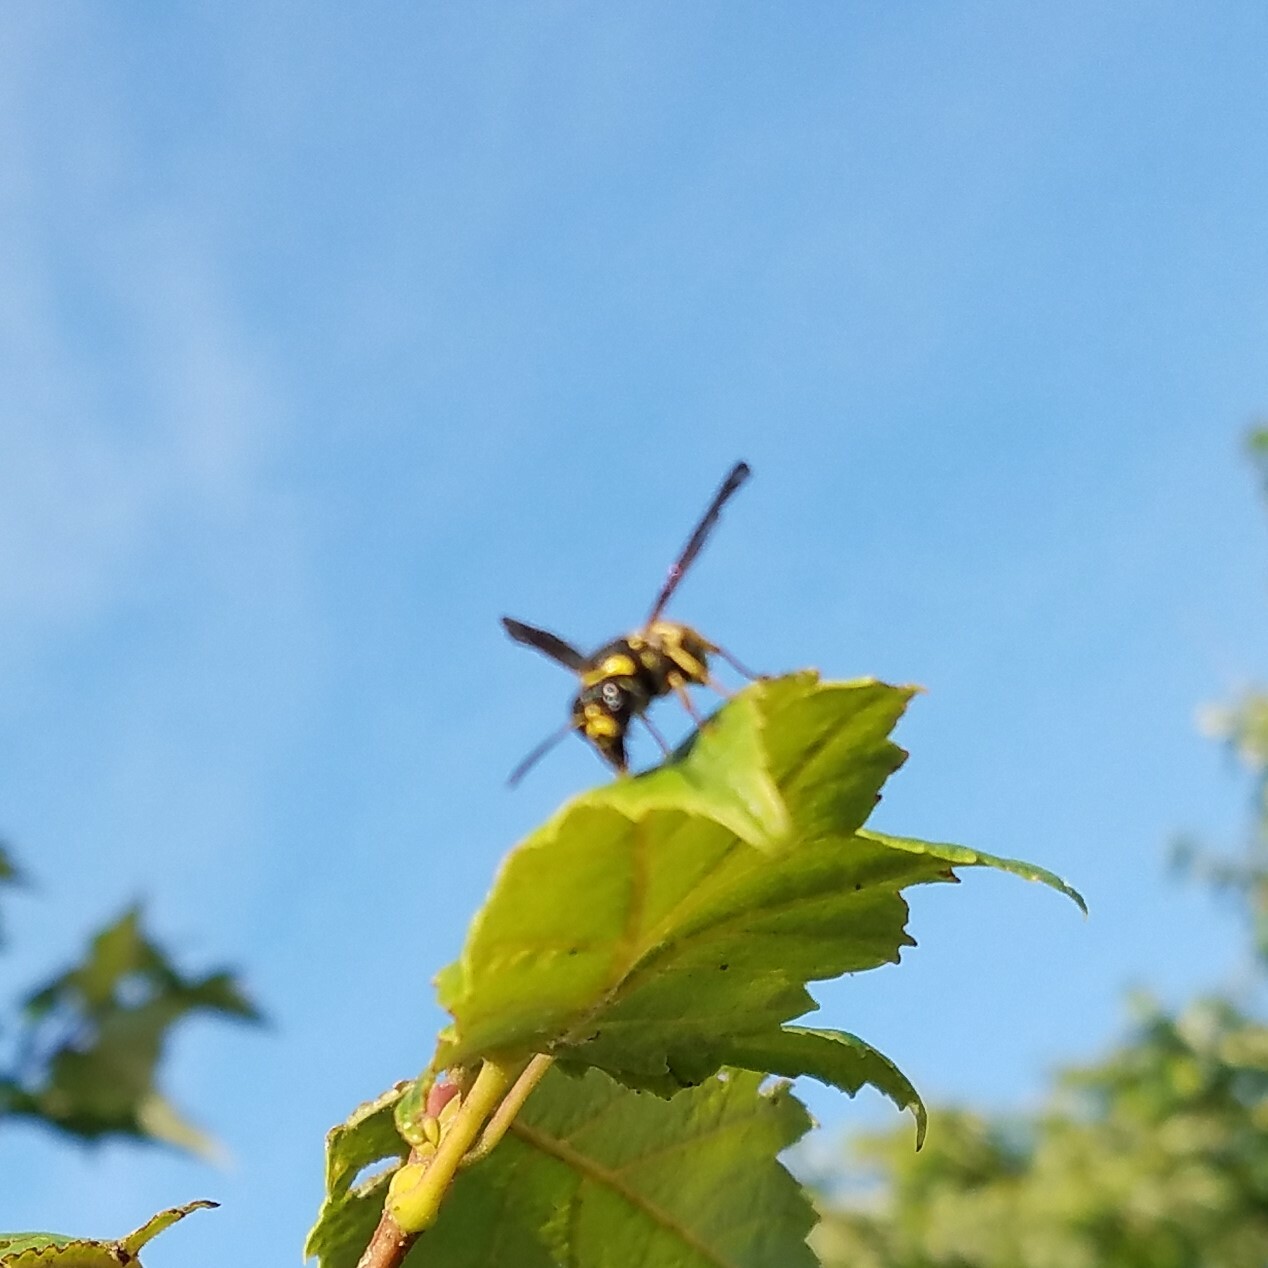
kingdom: Animalia
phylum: Arthropoda
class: Insecta
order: Hymenoptera
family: Eumenidae
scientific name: Eumenidae
